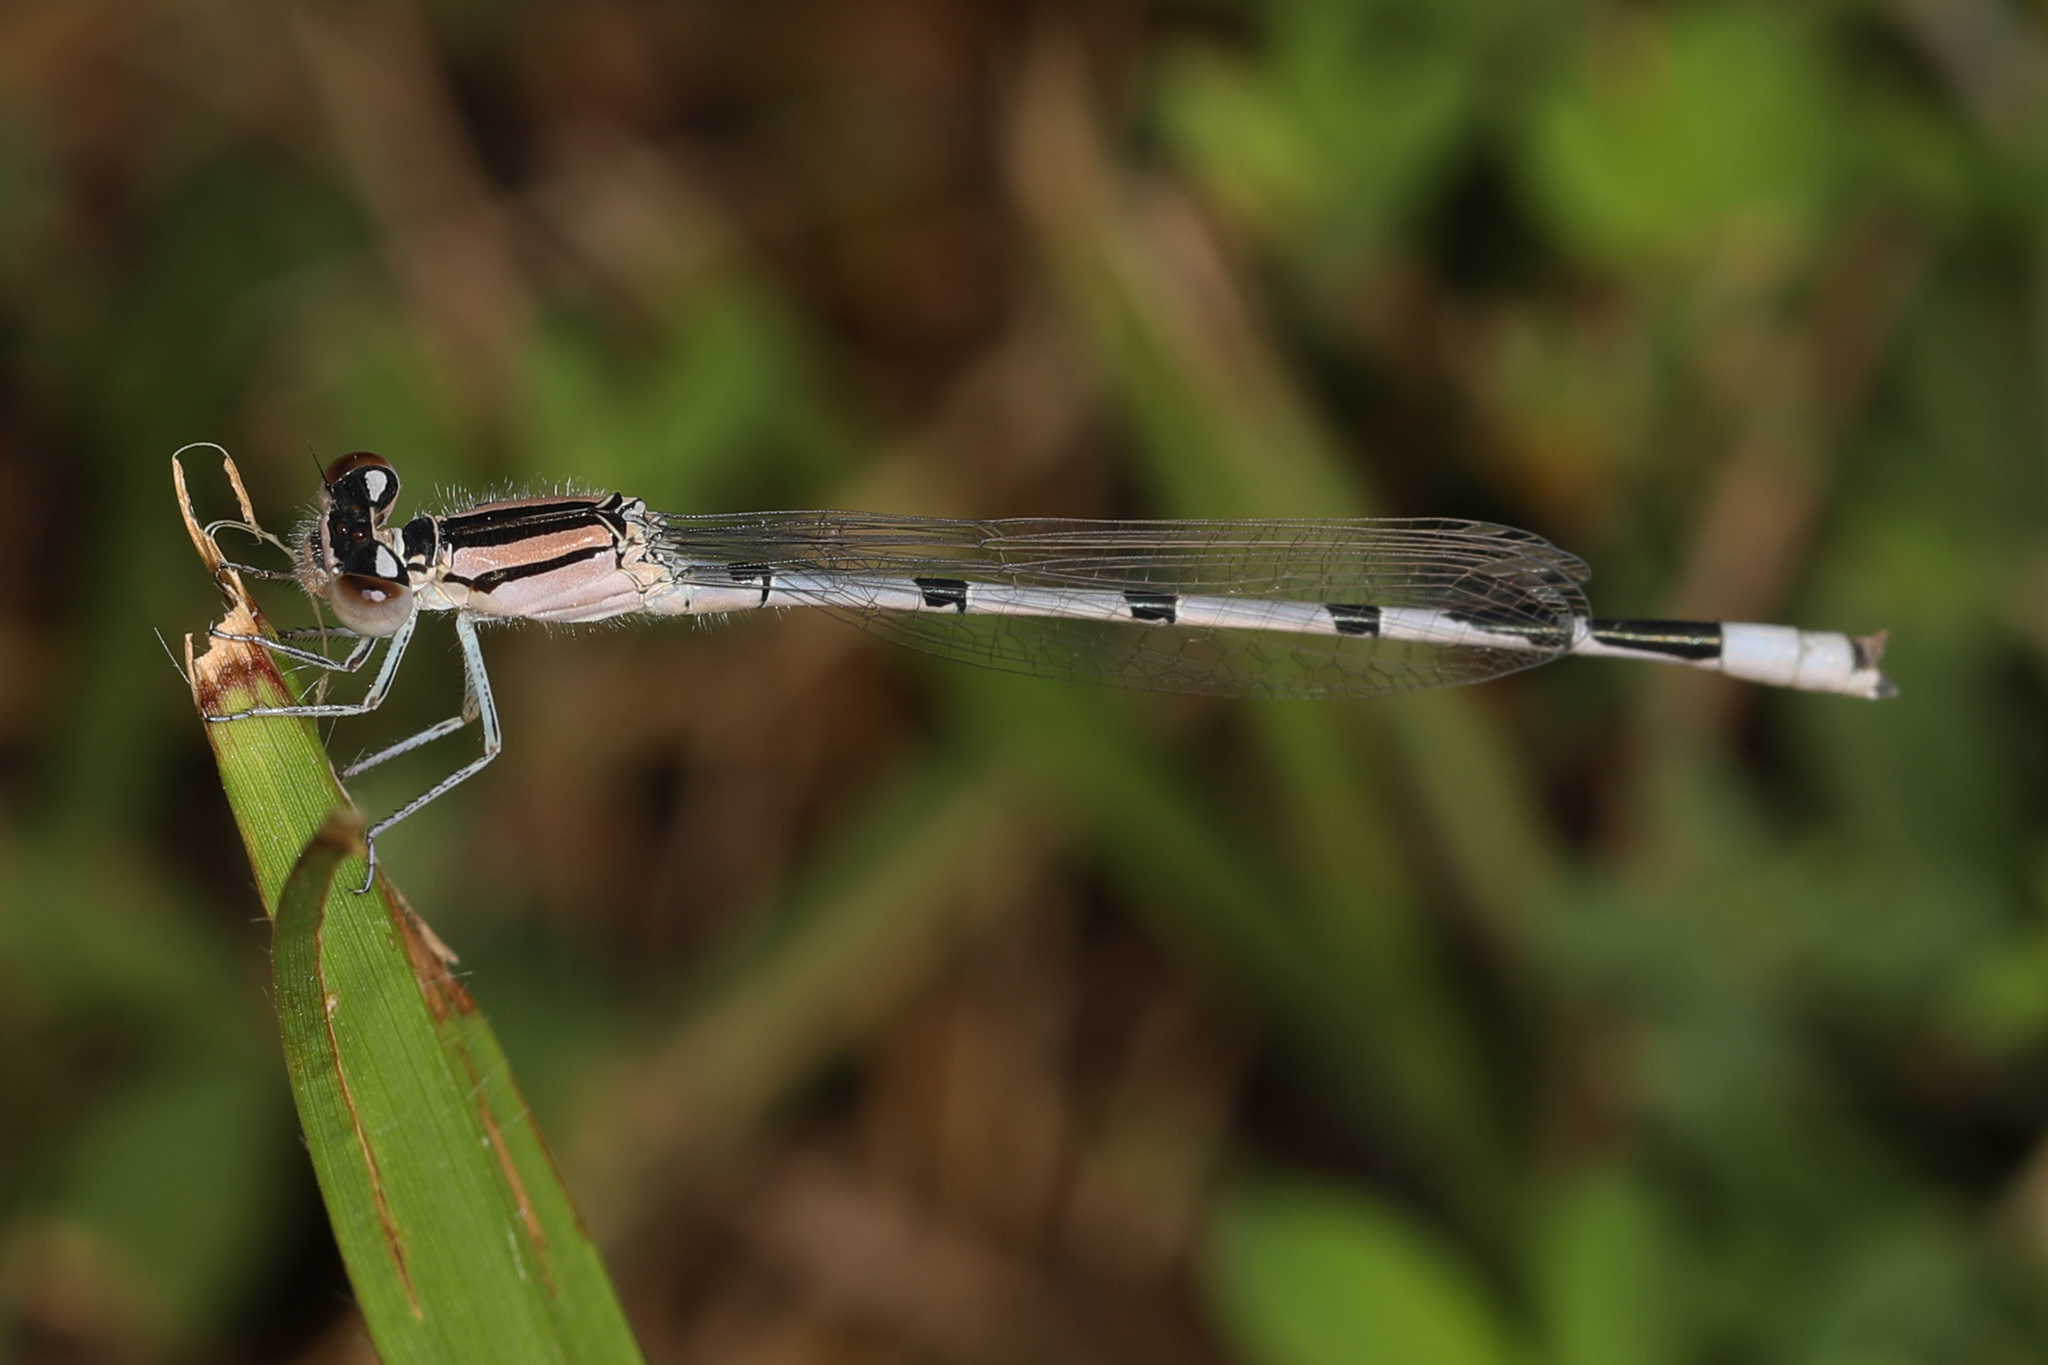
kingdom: Animalia
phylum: Arthropoda
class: Insecta
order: Odonata
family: Coenagrionidae
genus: Enallagma
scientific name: Enallagma civile
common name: Damselfly
